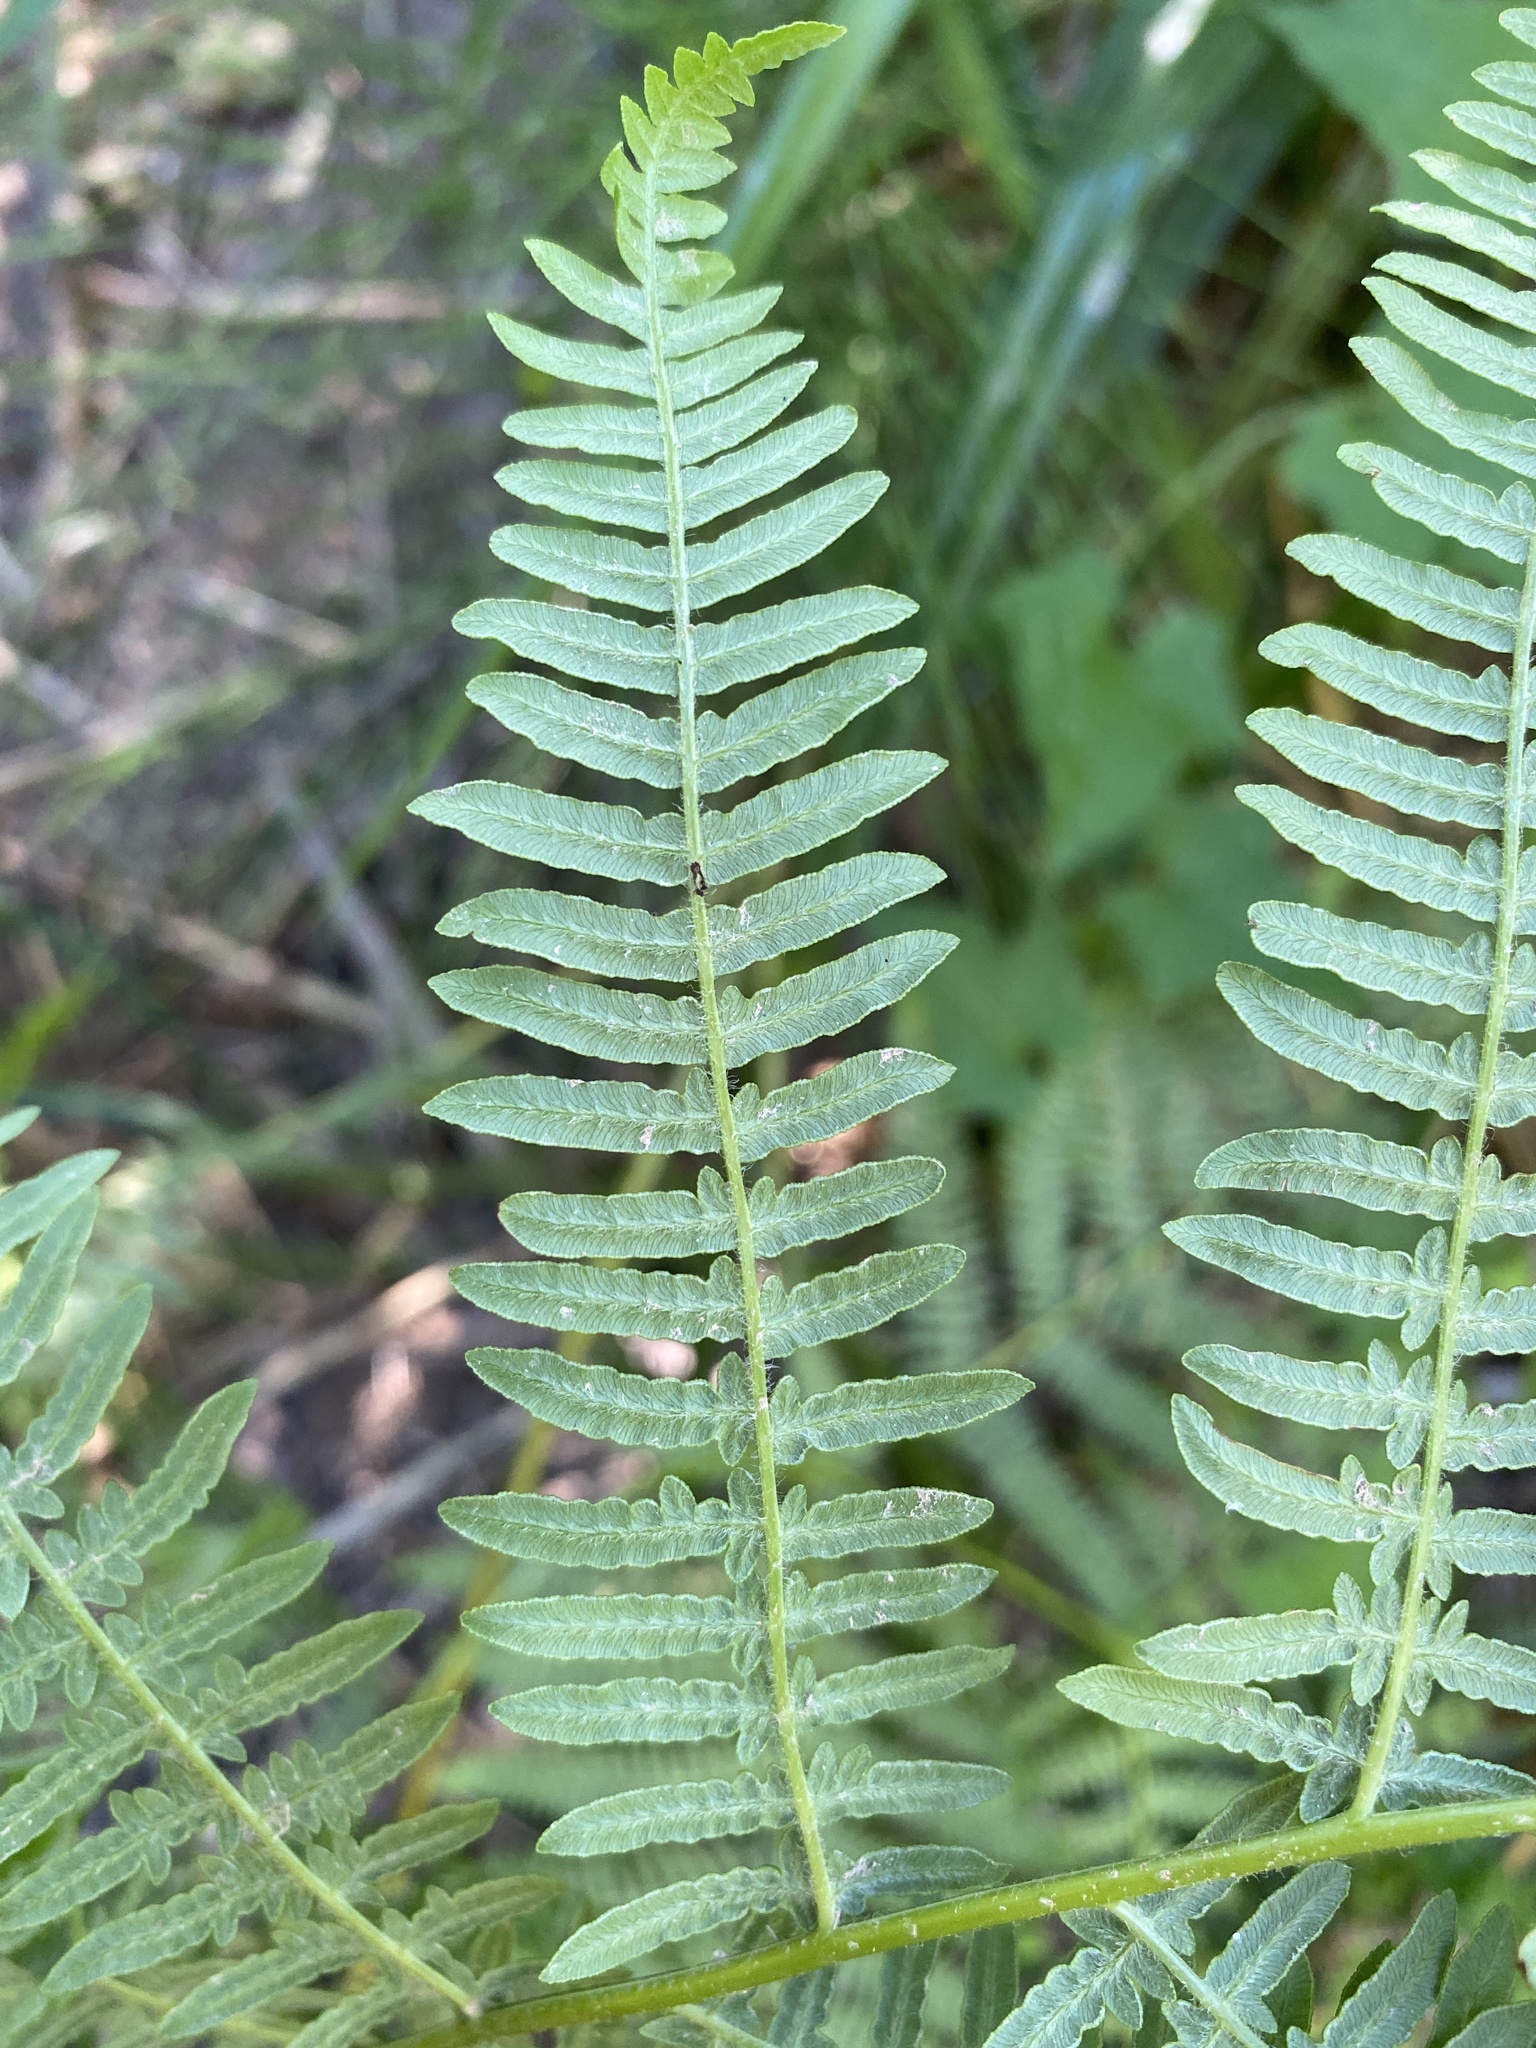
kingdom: Plantae
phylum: Tracheophyta
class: Polypodiopsida
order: Polypodiales
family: Dennstaedtiaceae
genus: Pteridium
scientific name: Pteridium aquilinum
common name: Bracken
